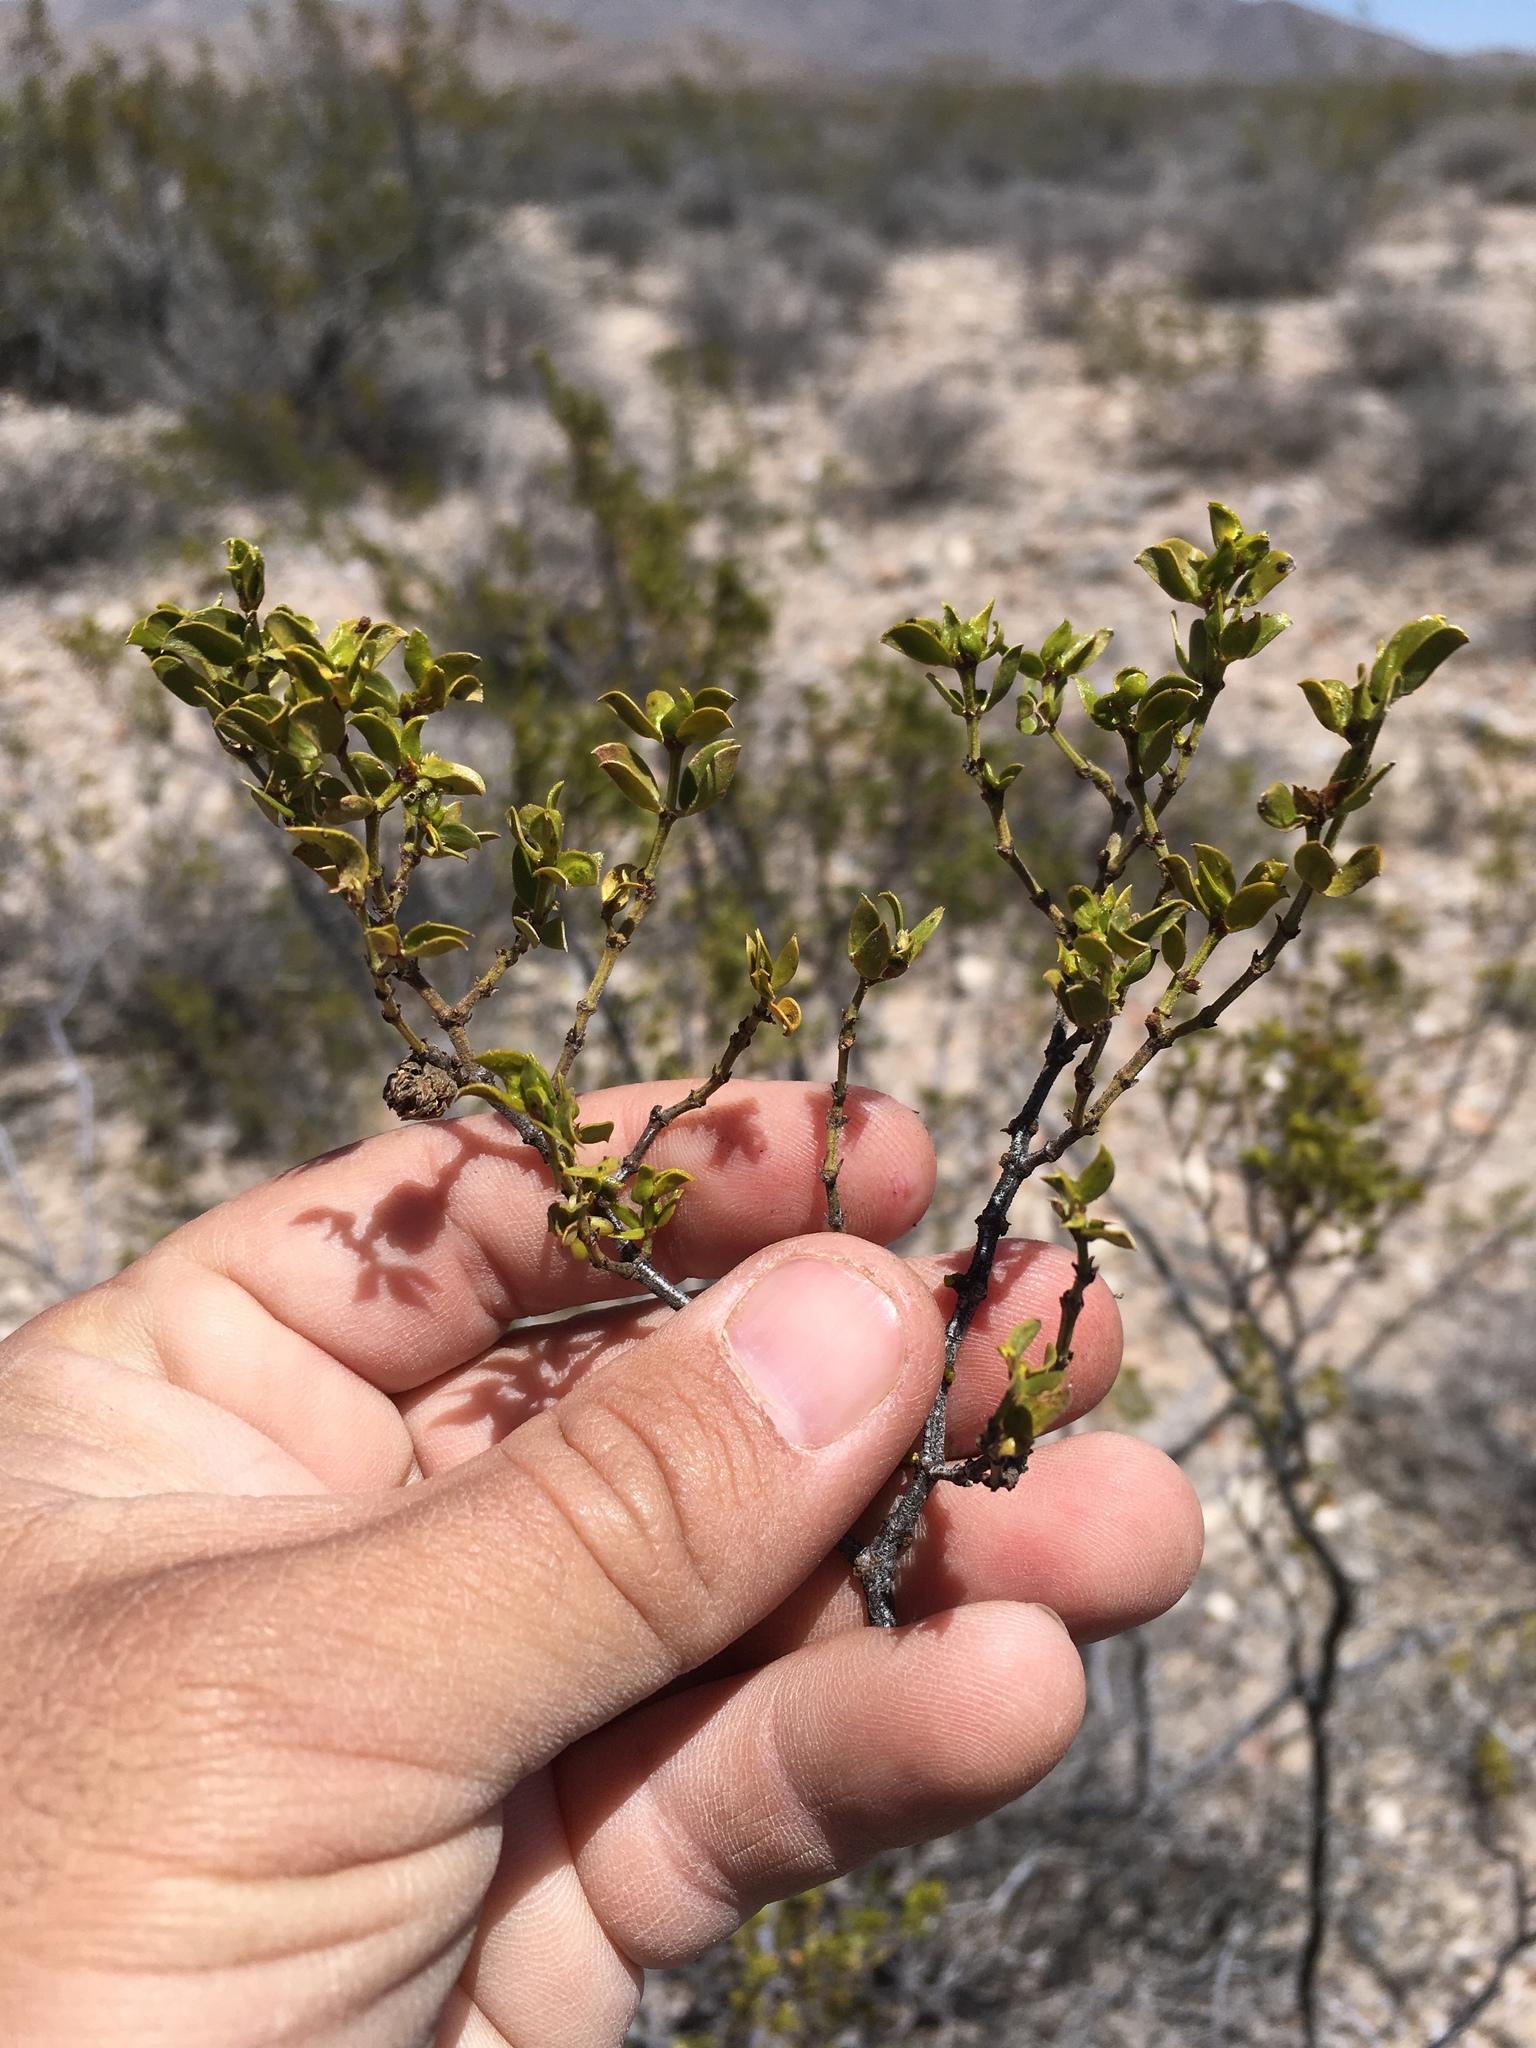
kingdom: Plantae
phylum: Tracheophyta
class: Magnoliopsida
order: Zygophyllales
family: Zygophyllaceae
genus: Larrea
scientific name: Larrea tridentata
